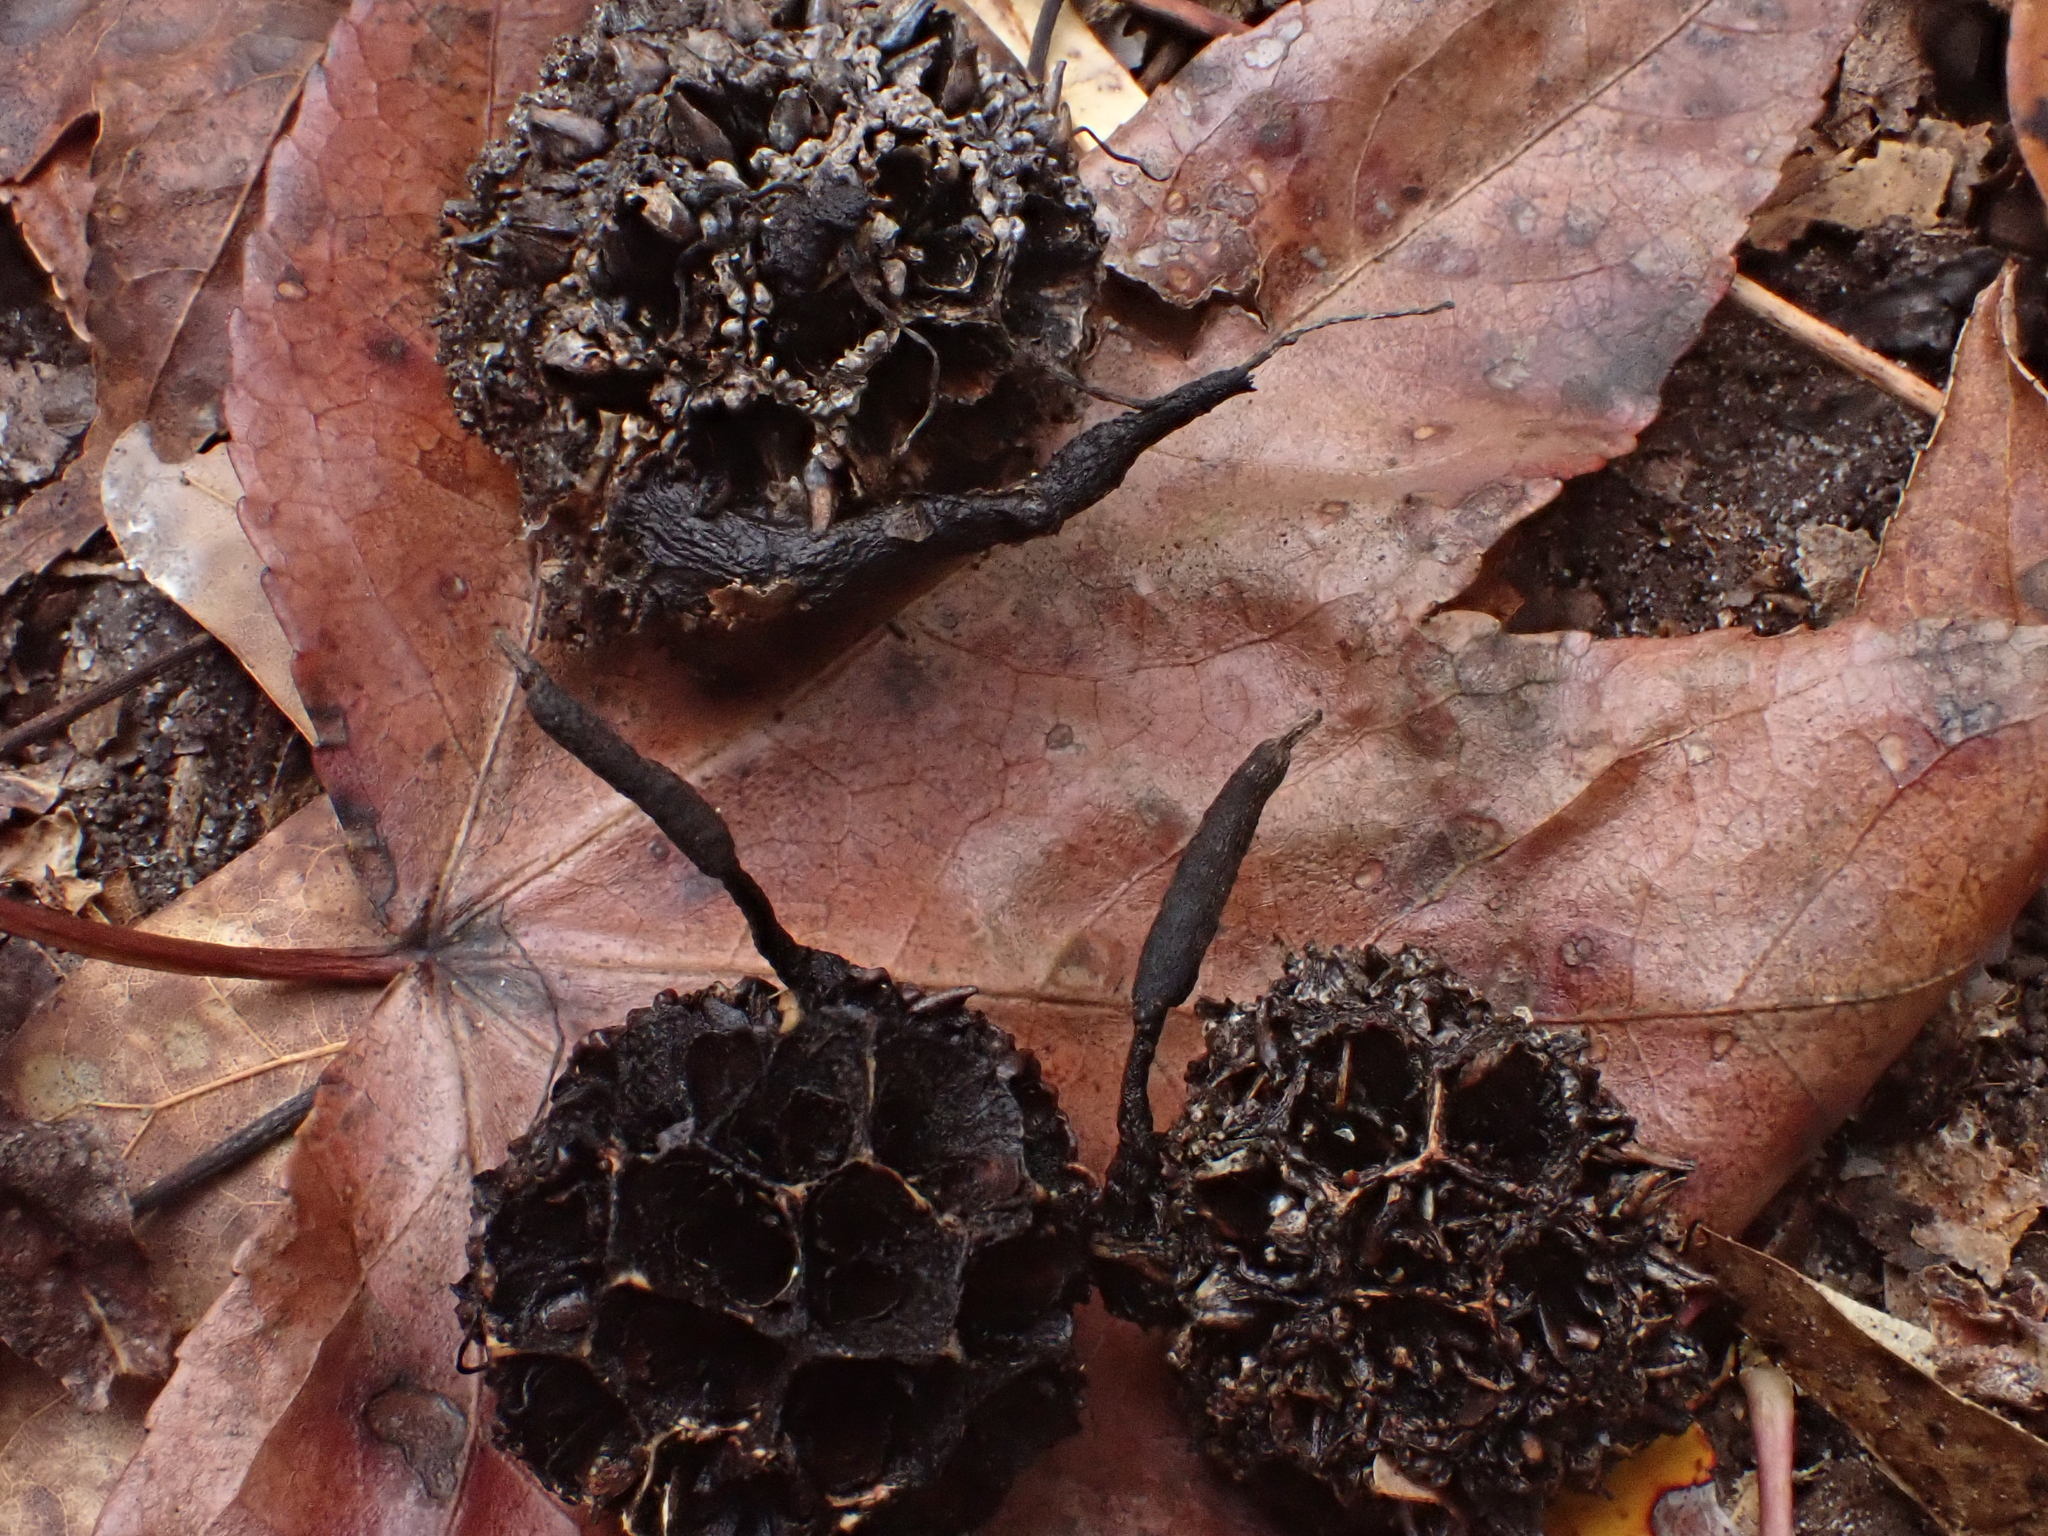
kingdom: Fungi
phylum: Ascomycota
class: Sordariomycetes
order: Xylariales
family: Xylariaceae
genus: Xylaria
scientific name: Xylaria liquidambaris
